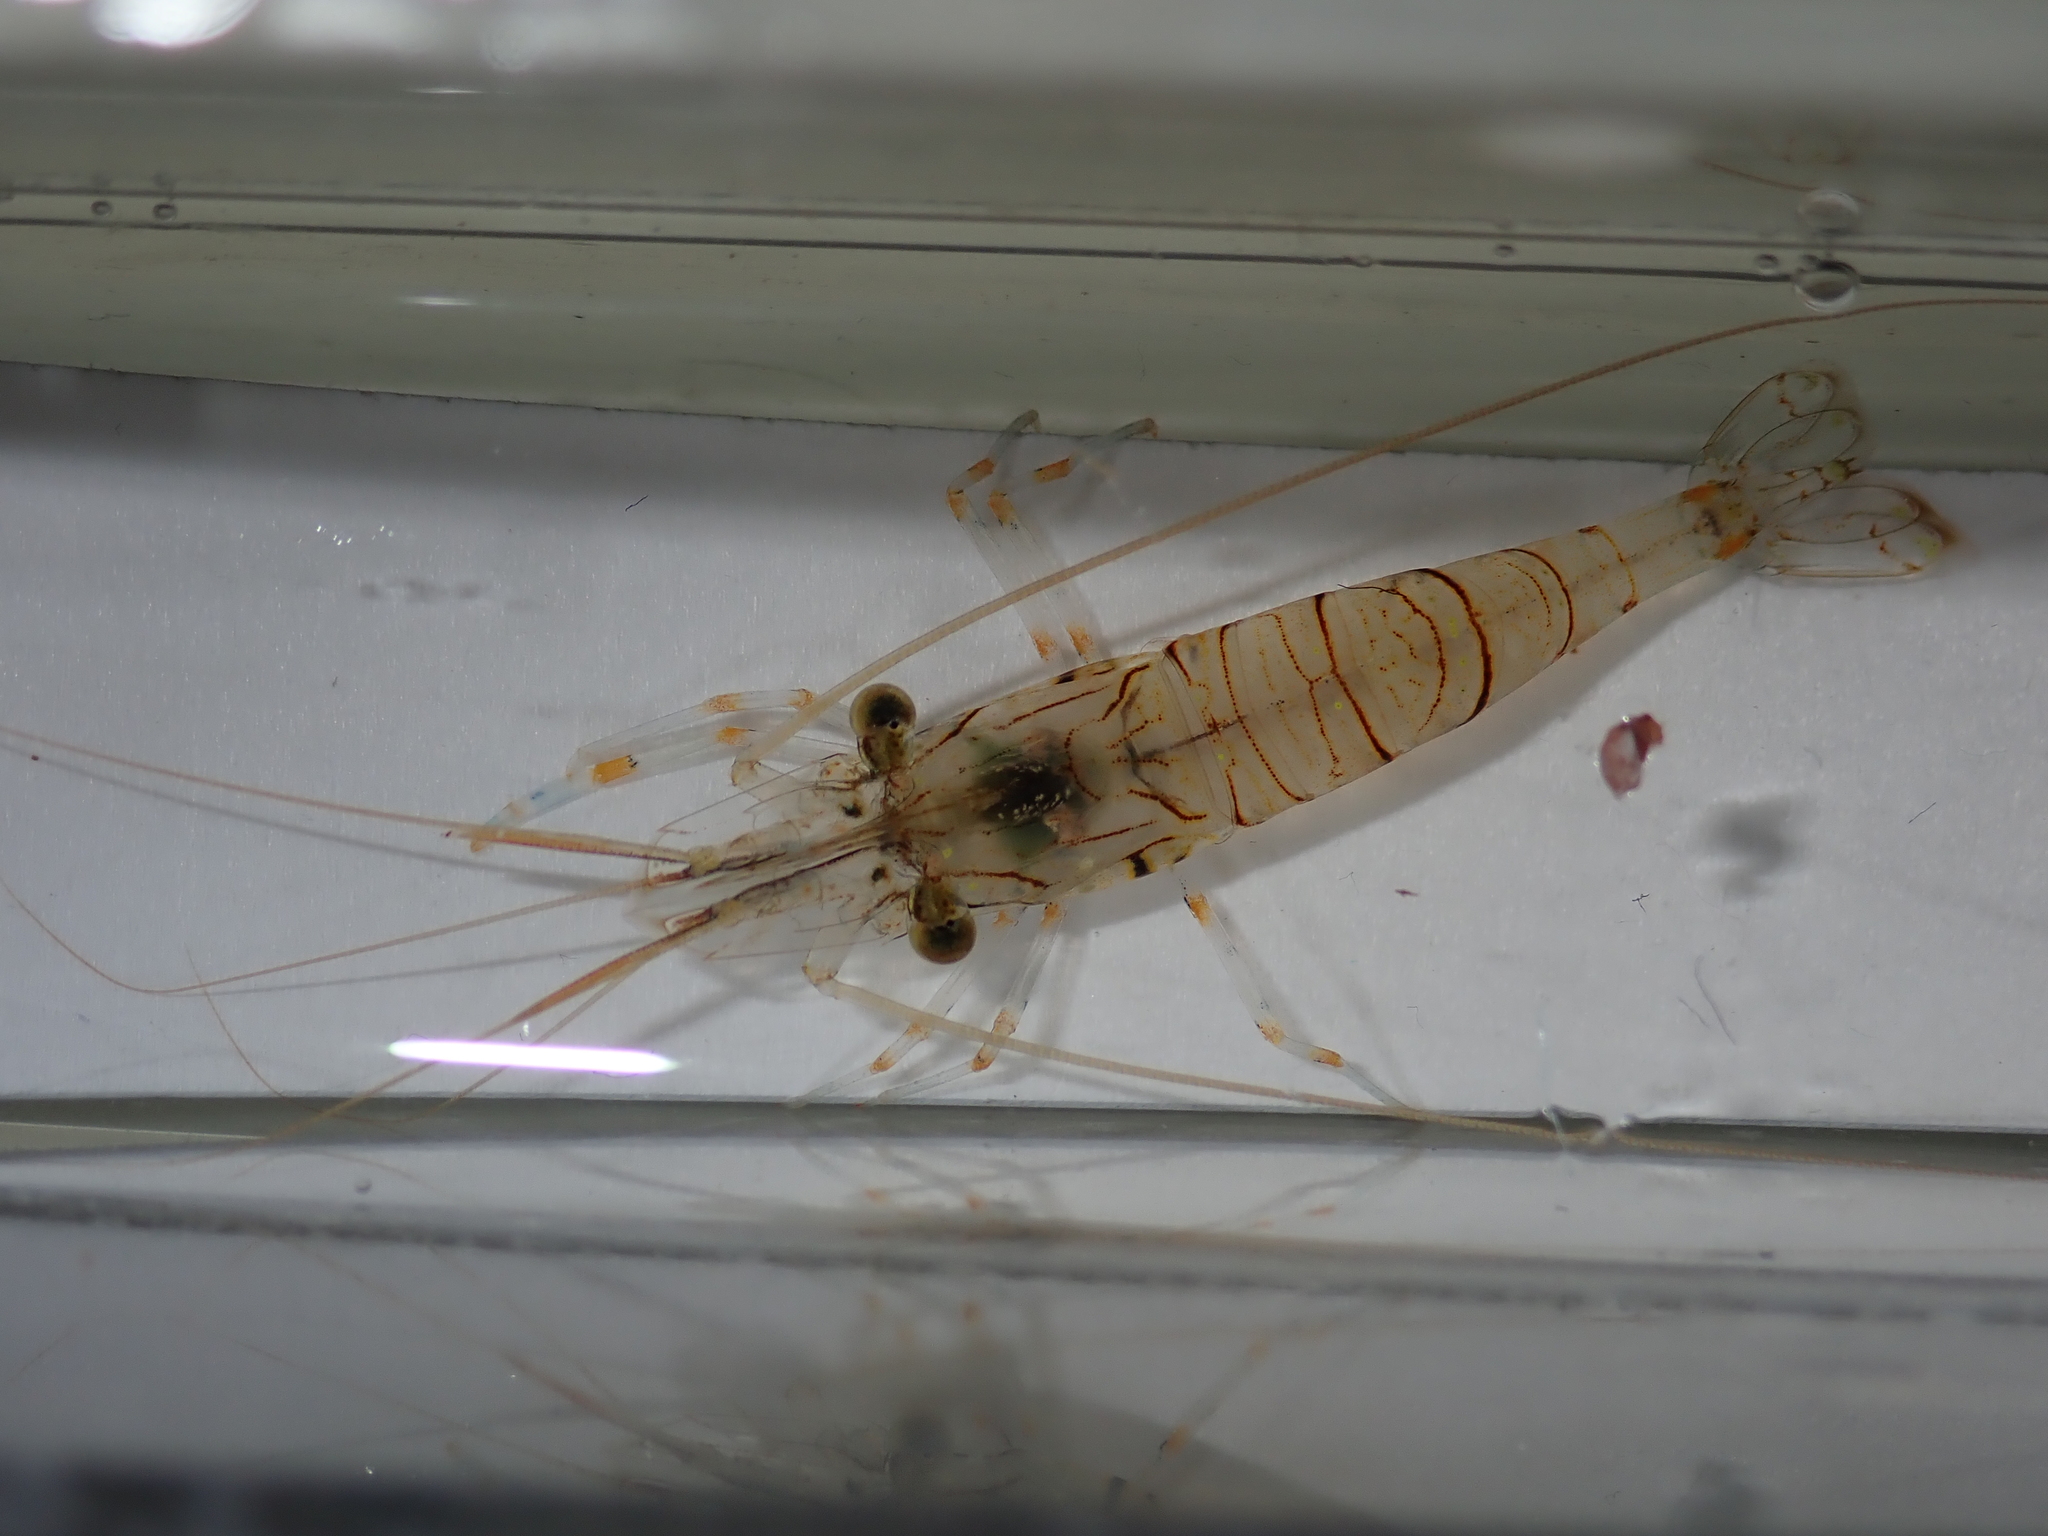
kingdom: Animalia
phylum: Arthropoda
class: Malacostraca
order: Decapoda
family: Palaemonidae
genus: Palaemon
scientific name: Palaemon elegans
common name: Grass prawm
